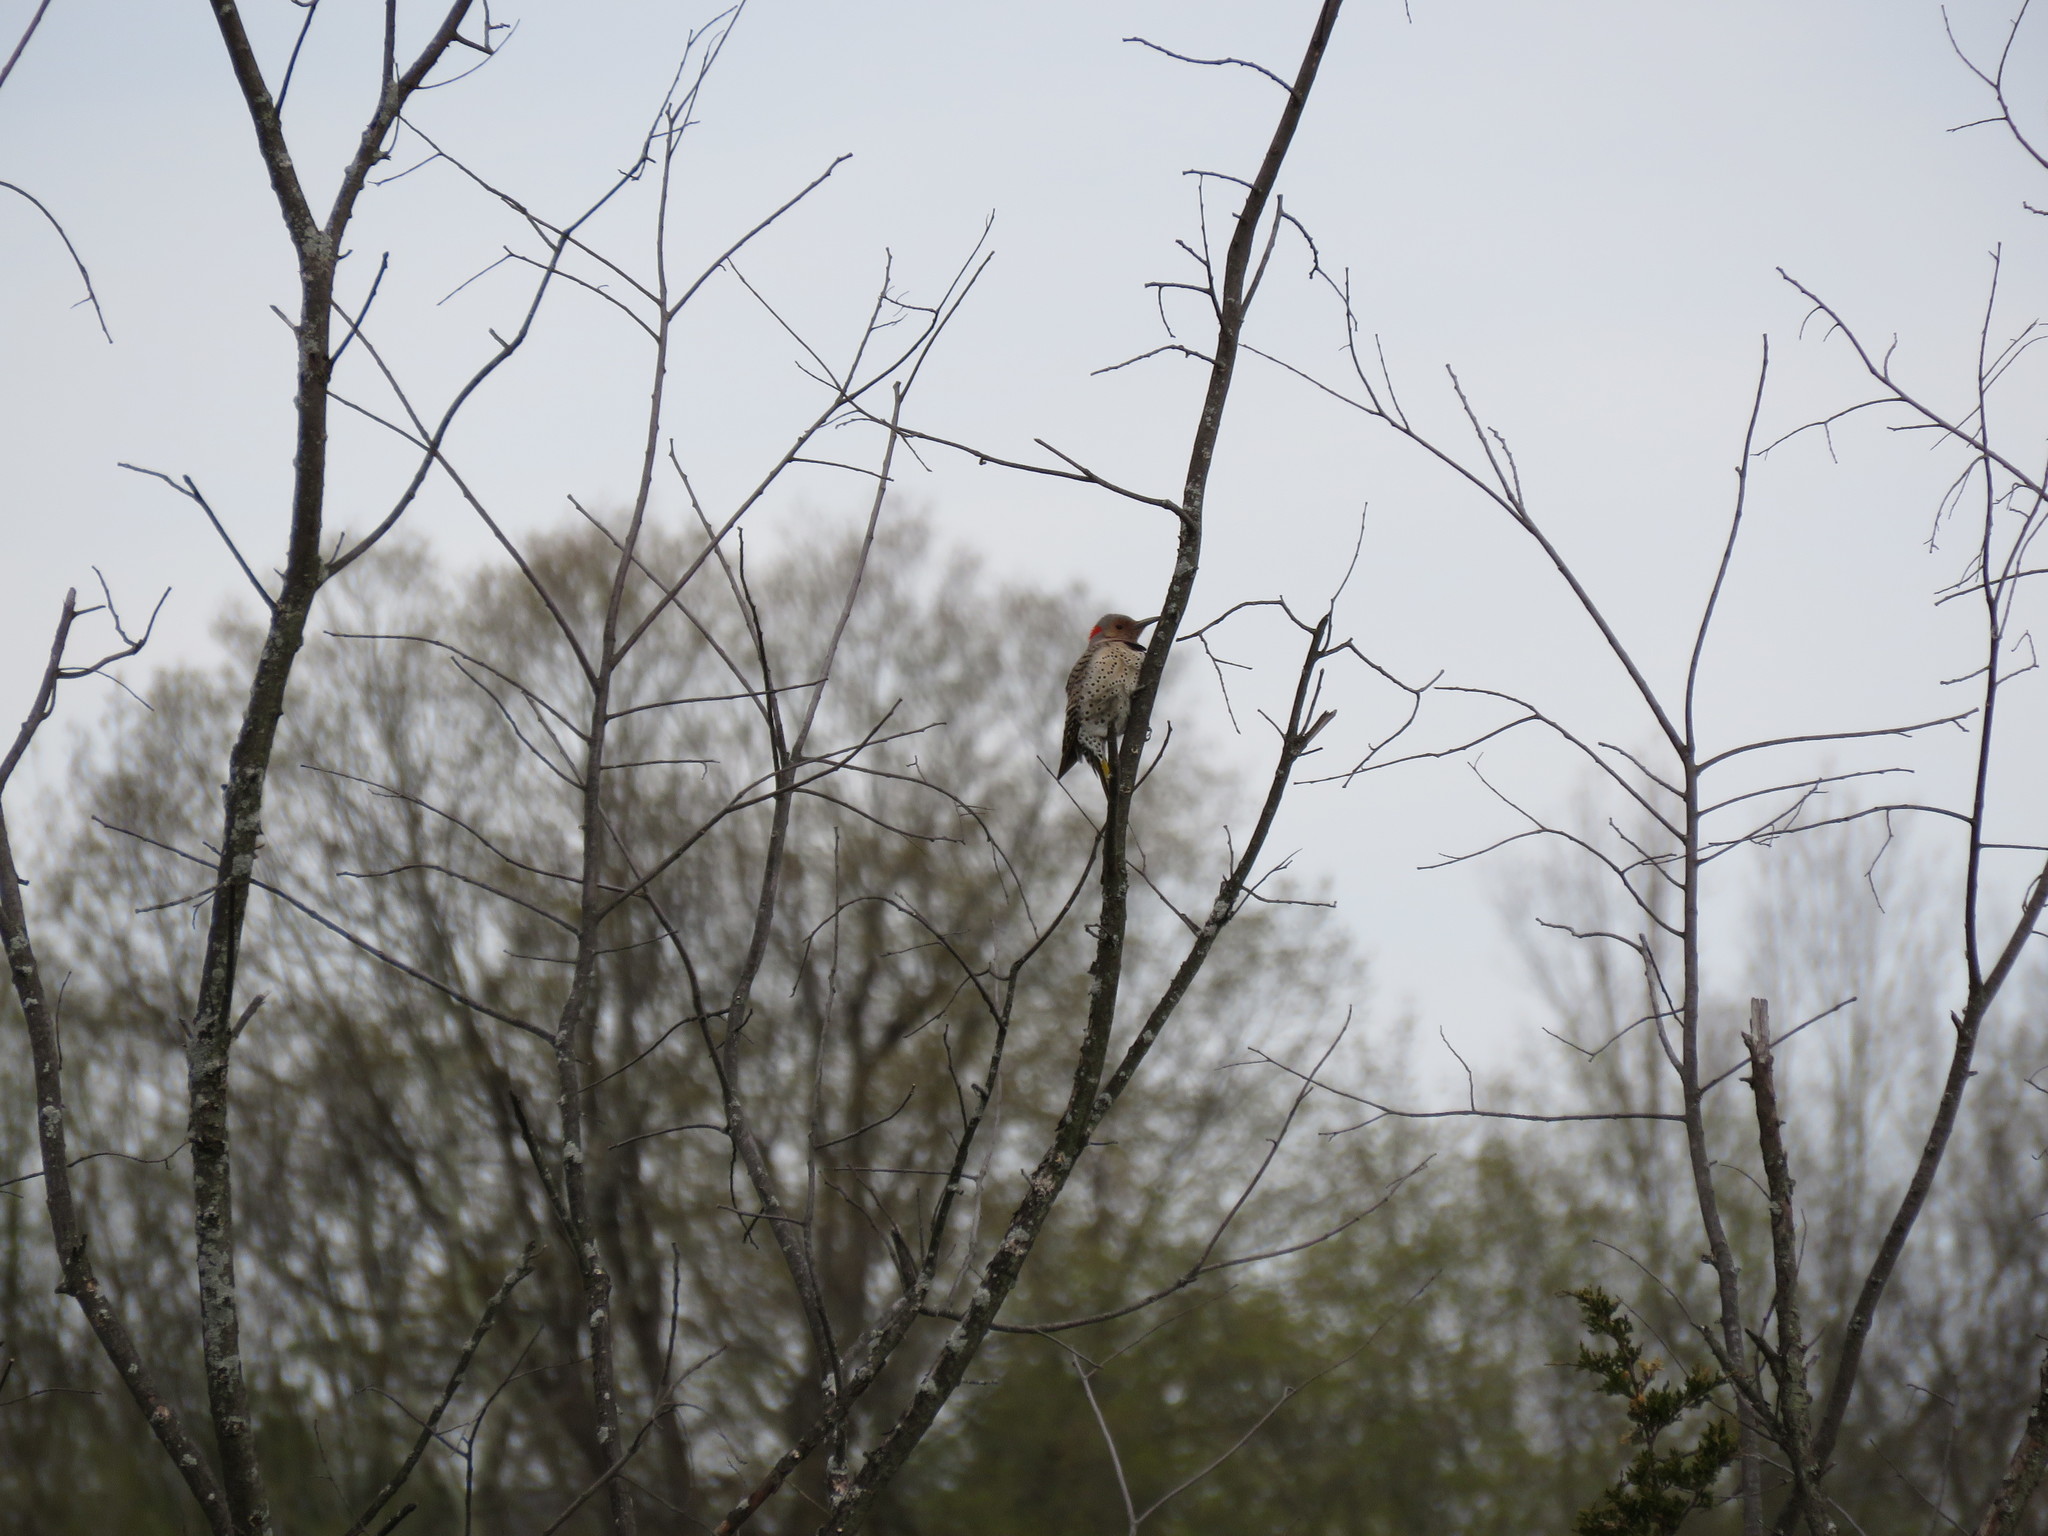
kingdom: Animalia
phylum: Chordata
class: Aves
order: Piciformes
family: Picidae
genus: Colaptes
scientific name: Colaptes auratus
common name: Northern flicker
